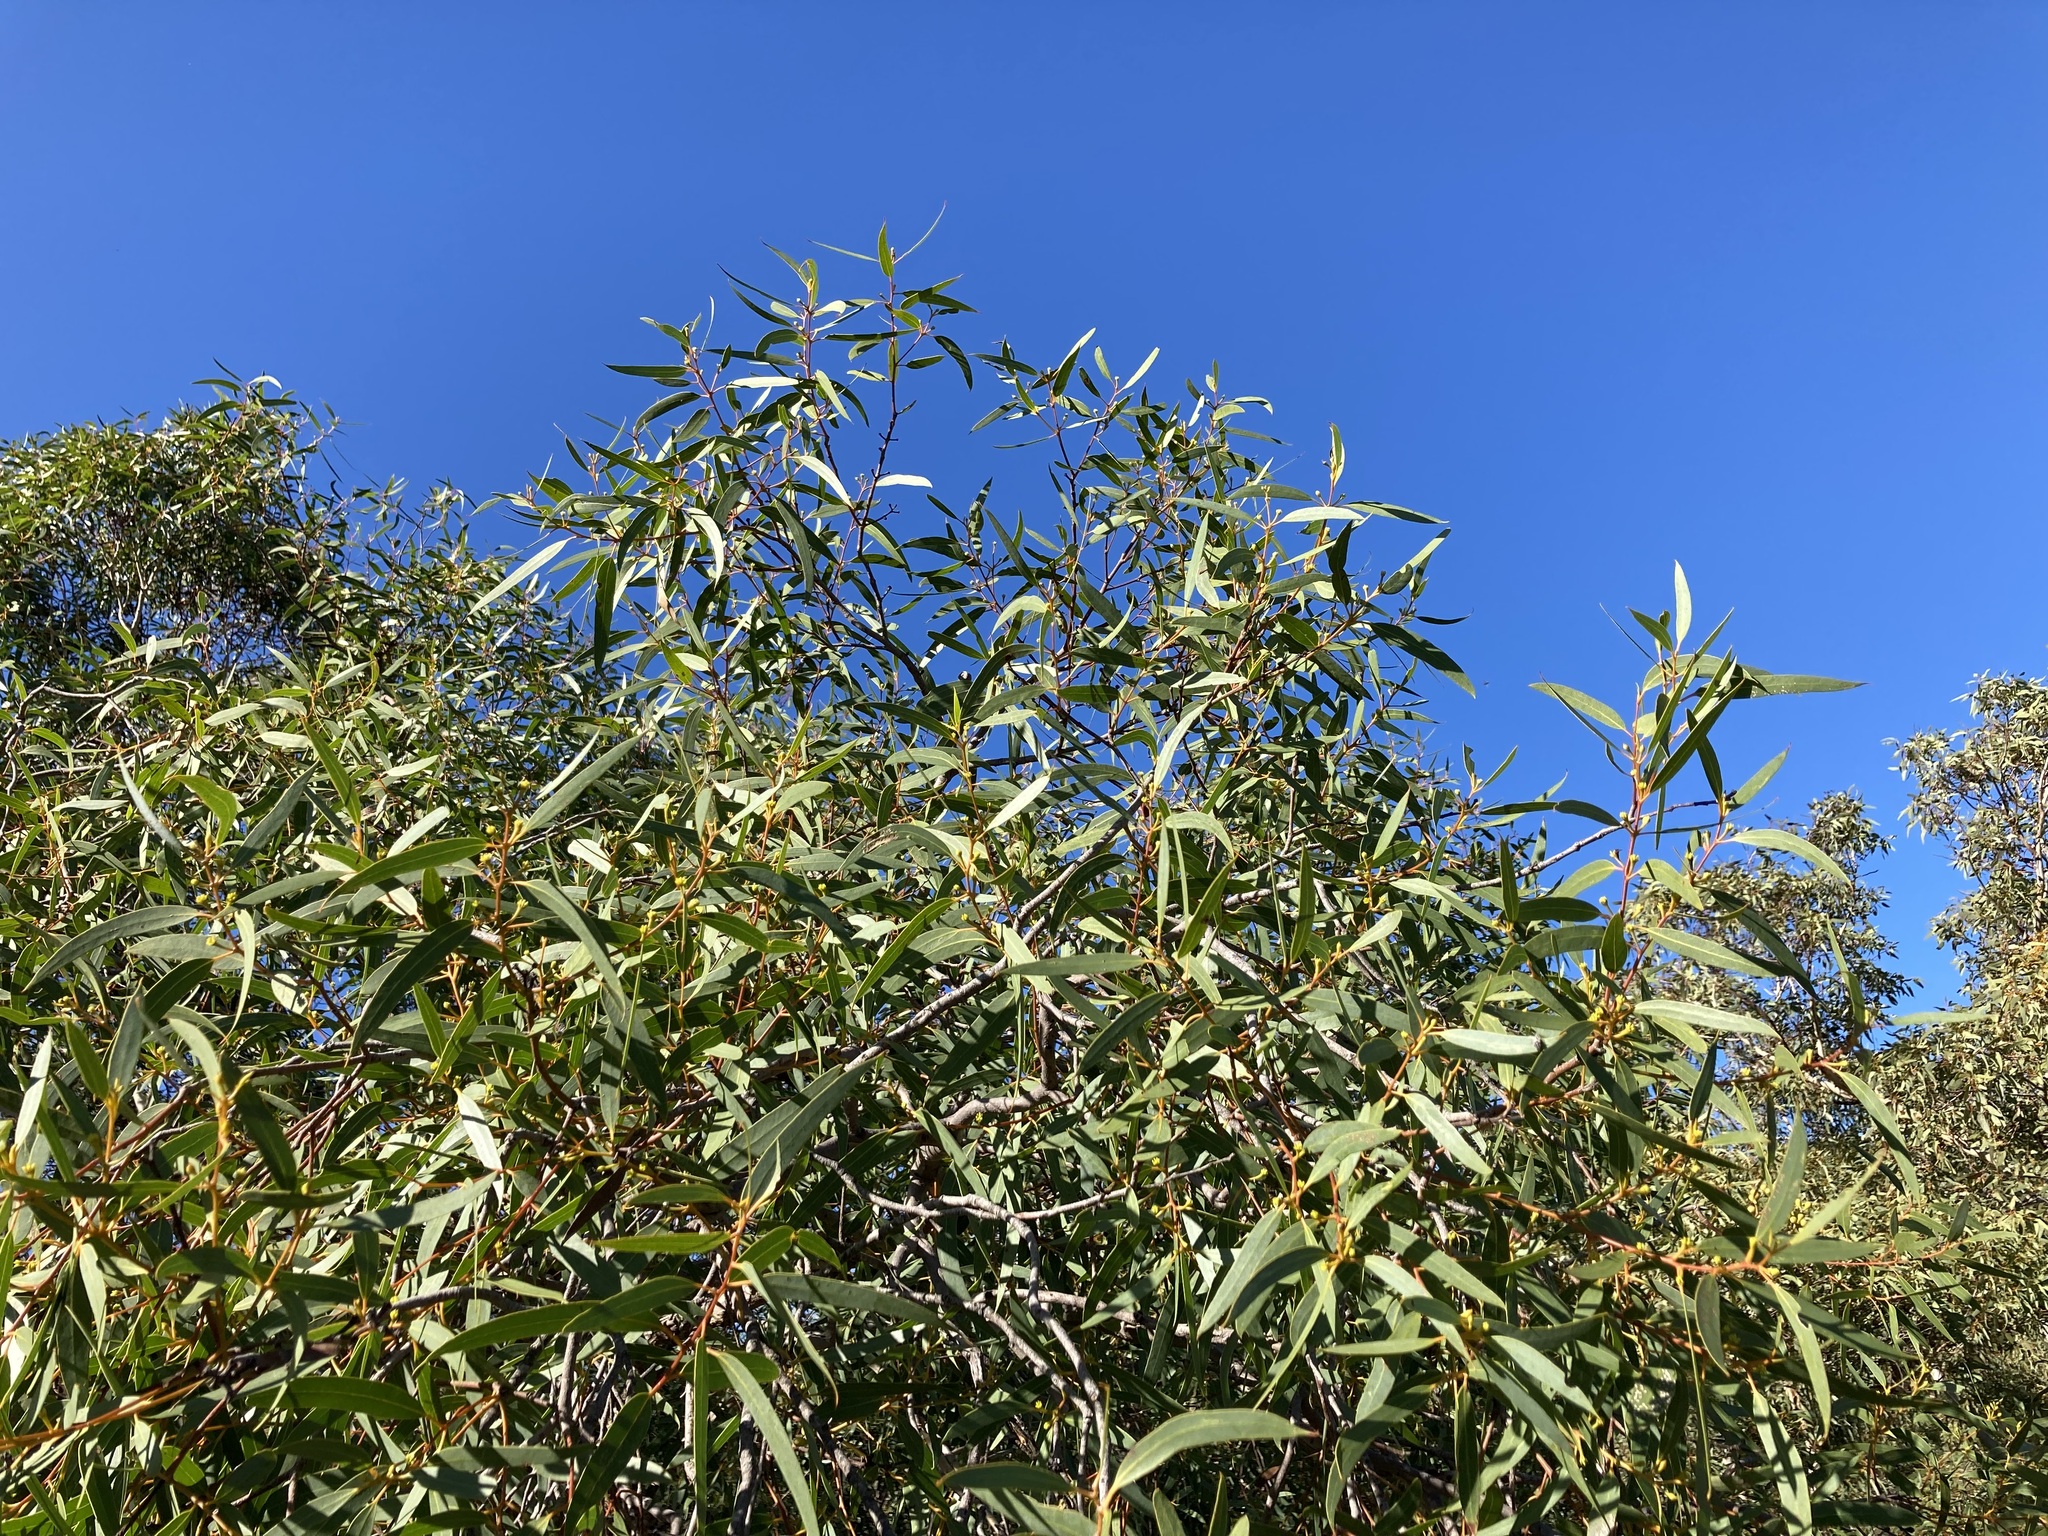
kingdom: Plantae
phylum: Tracheophyta
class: Magnoliopsida
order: Myrtales
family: Myrtaceae
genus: Eucalyptus
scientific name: Eucalyptus lateritica
